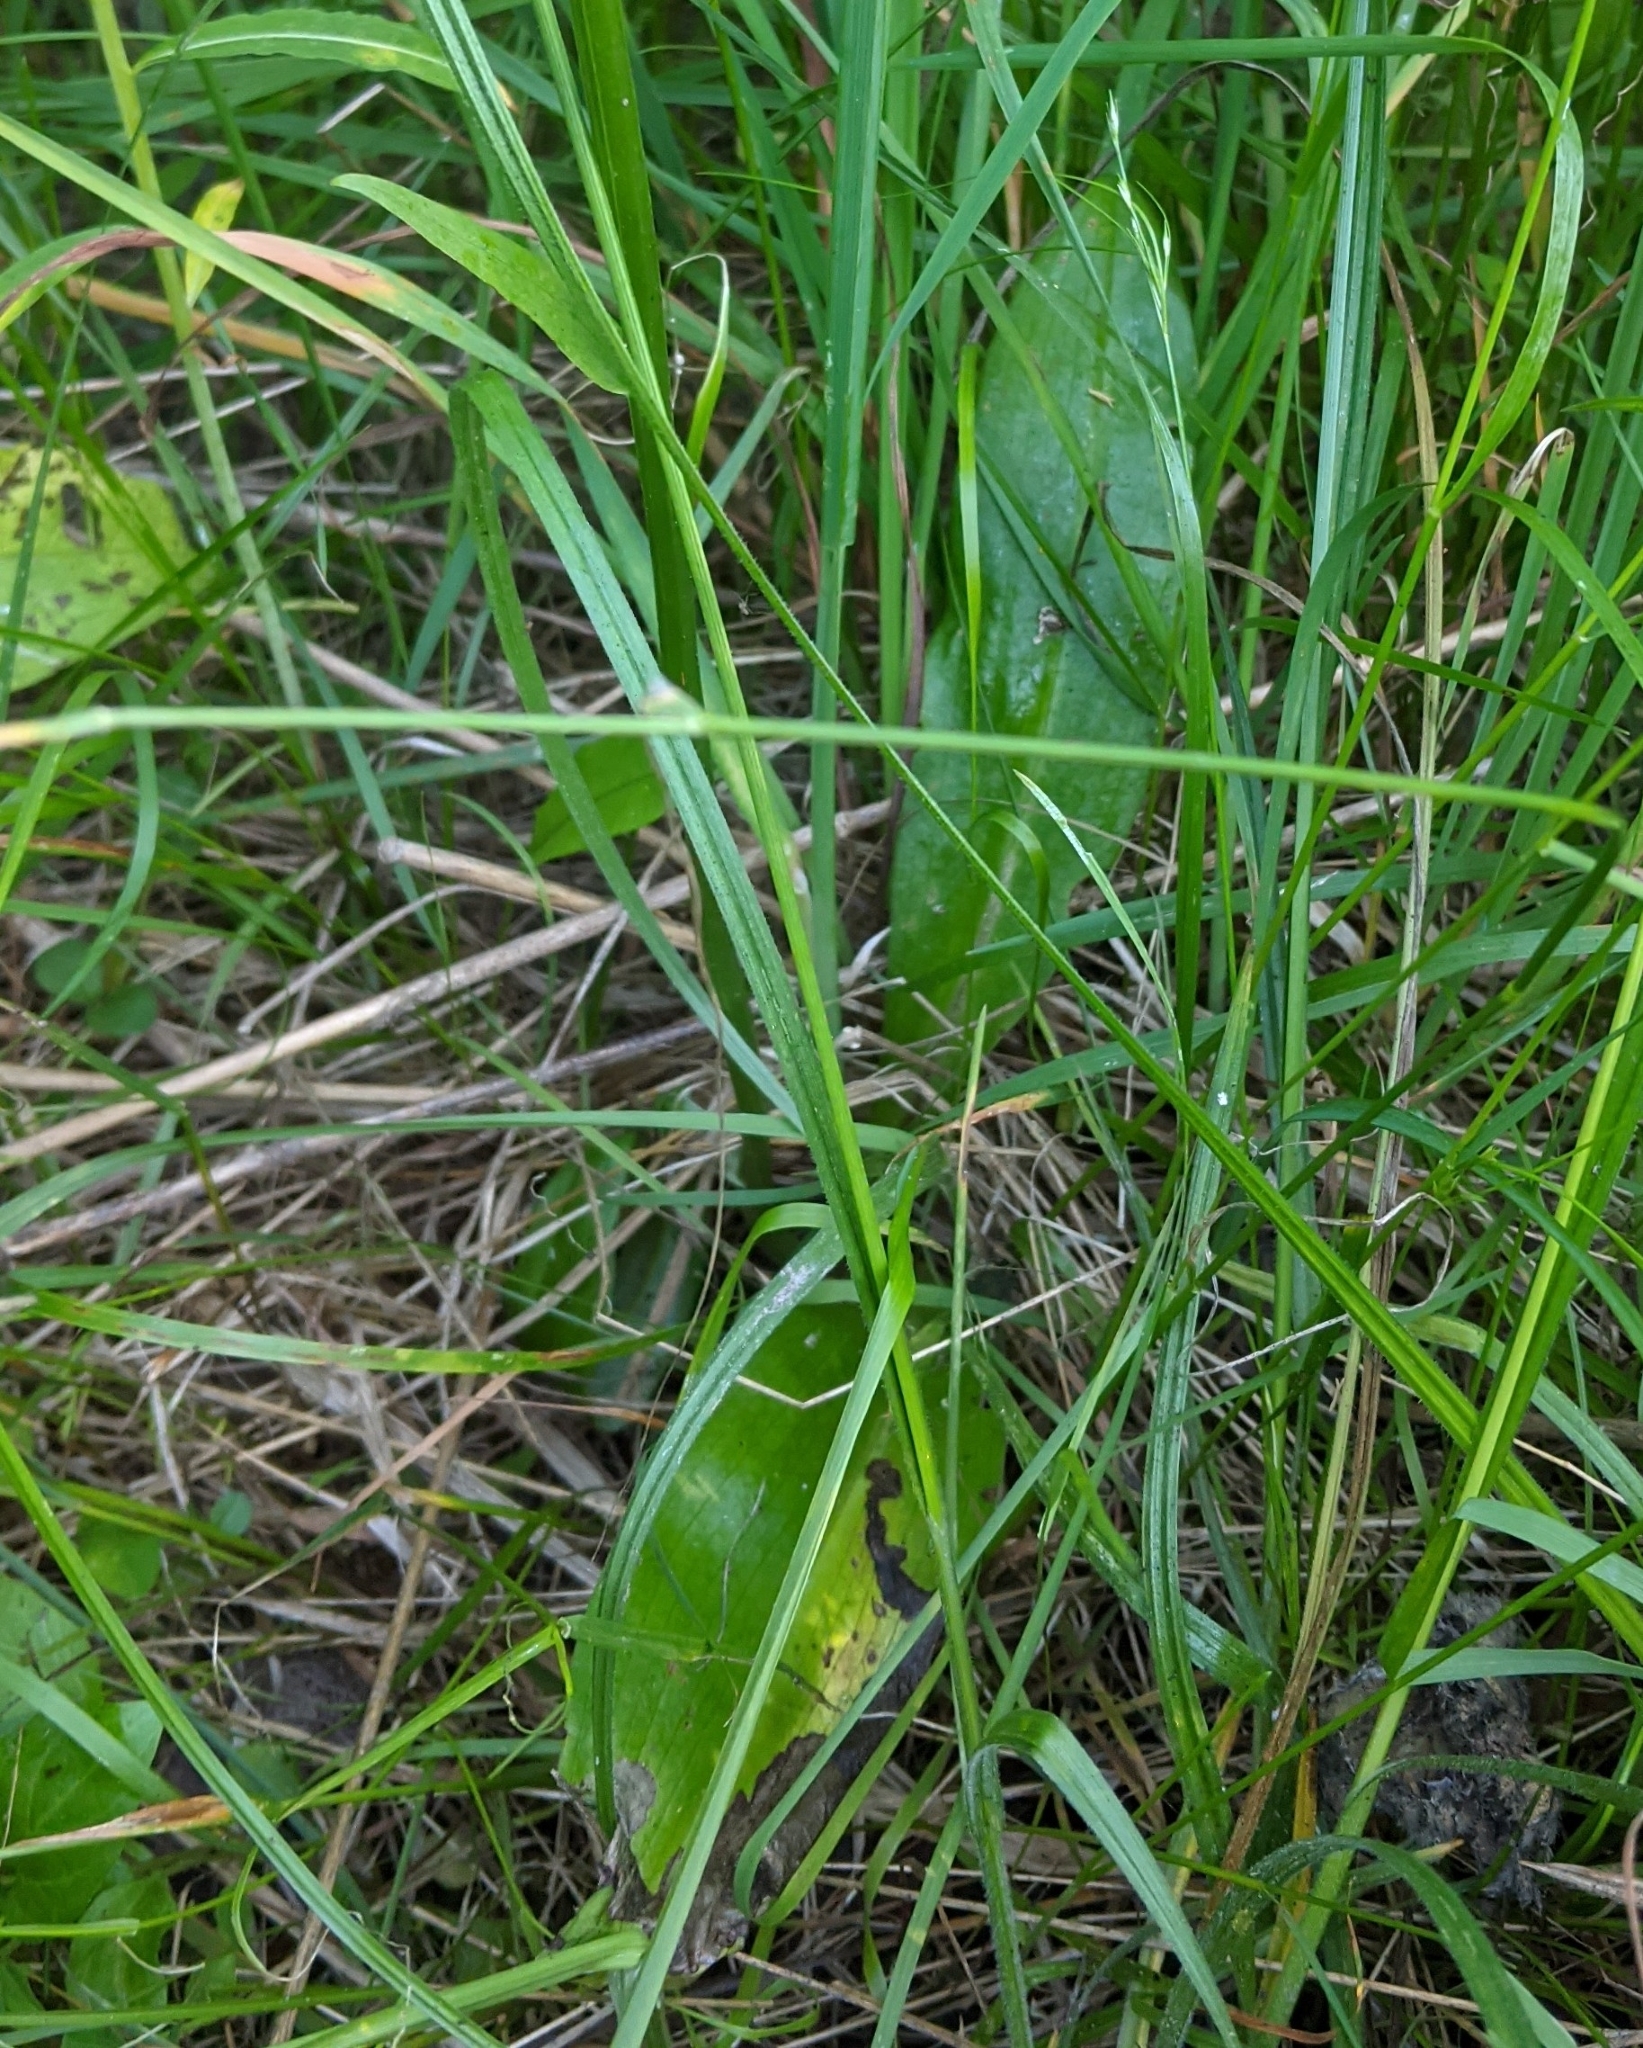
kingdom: Plantae
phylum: Tracheophyta
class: Liliopsida
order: Asparagales
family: Orchidaceae
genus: Platanthera
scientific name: Platanthera bifolia
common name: Lesser butterfly-orchid
